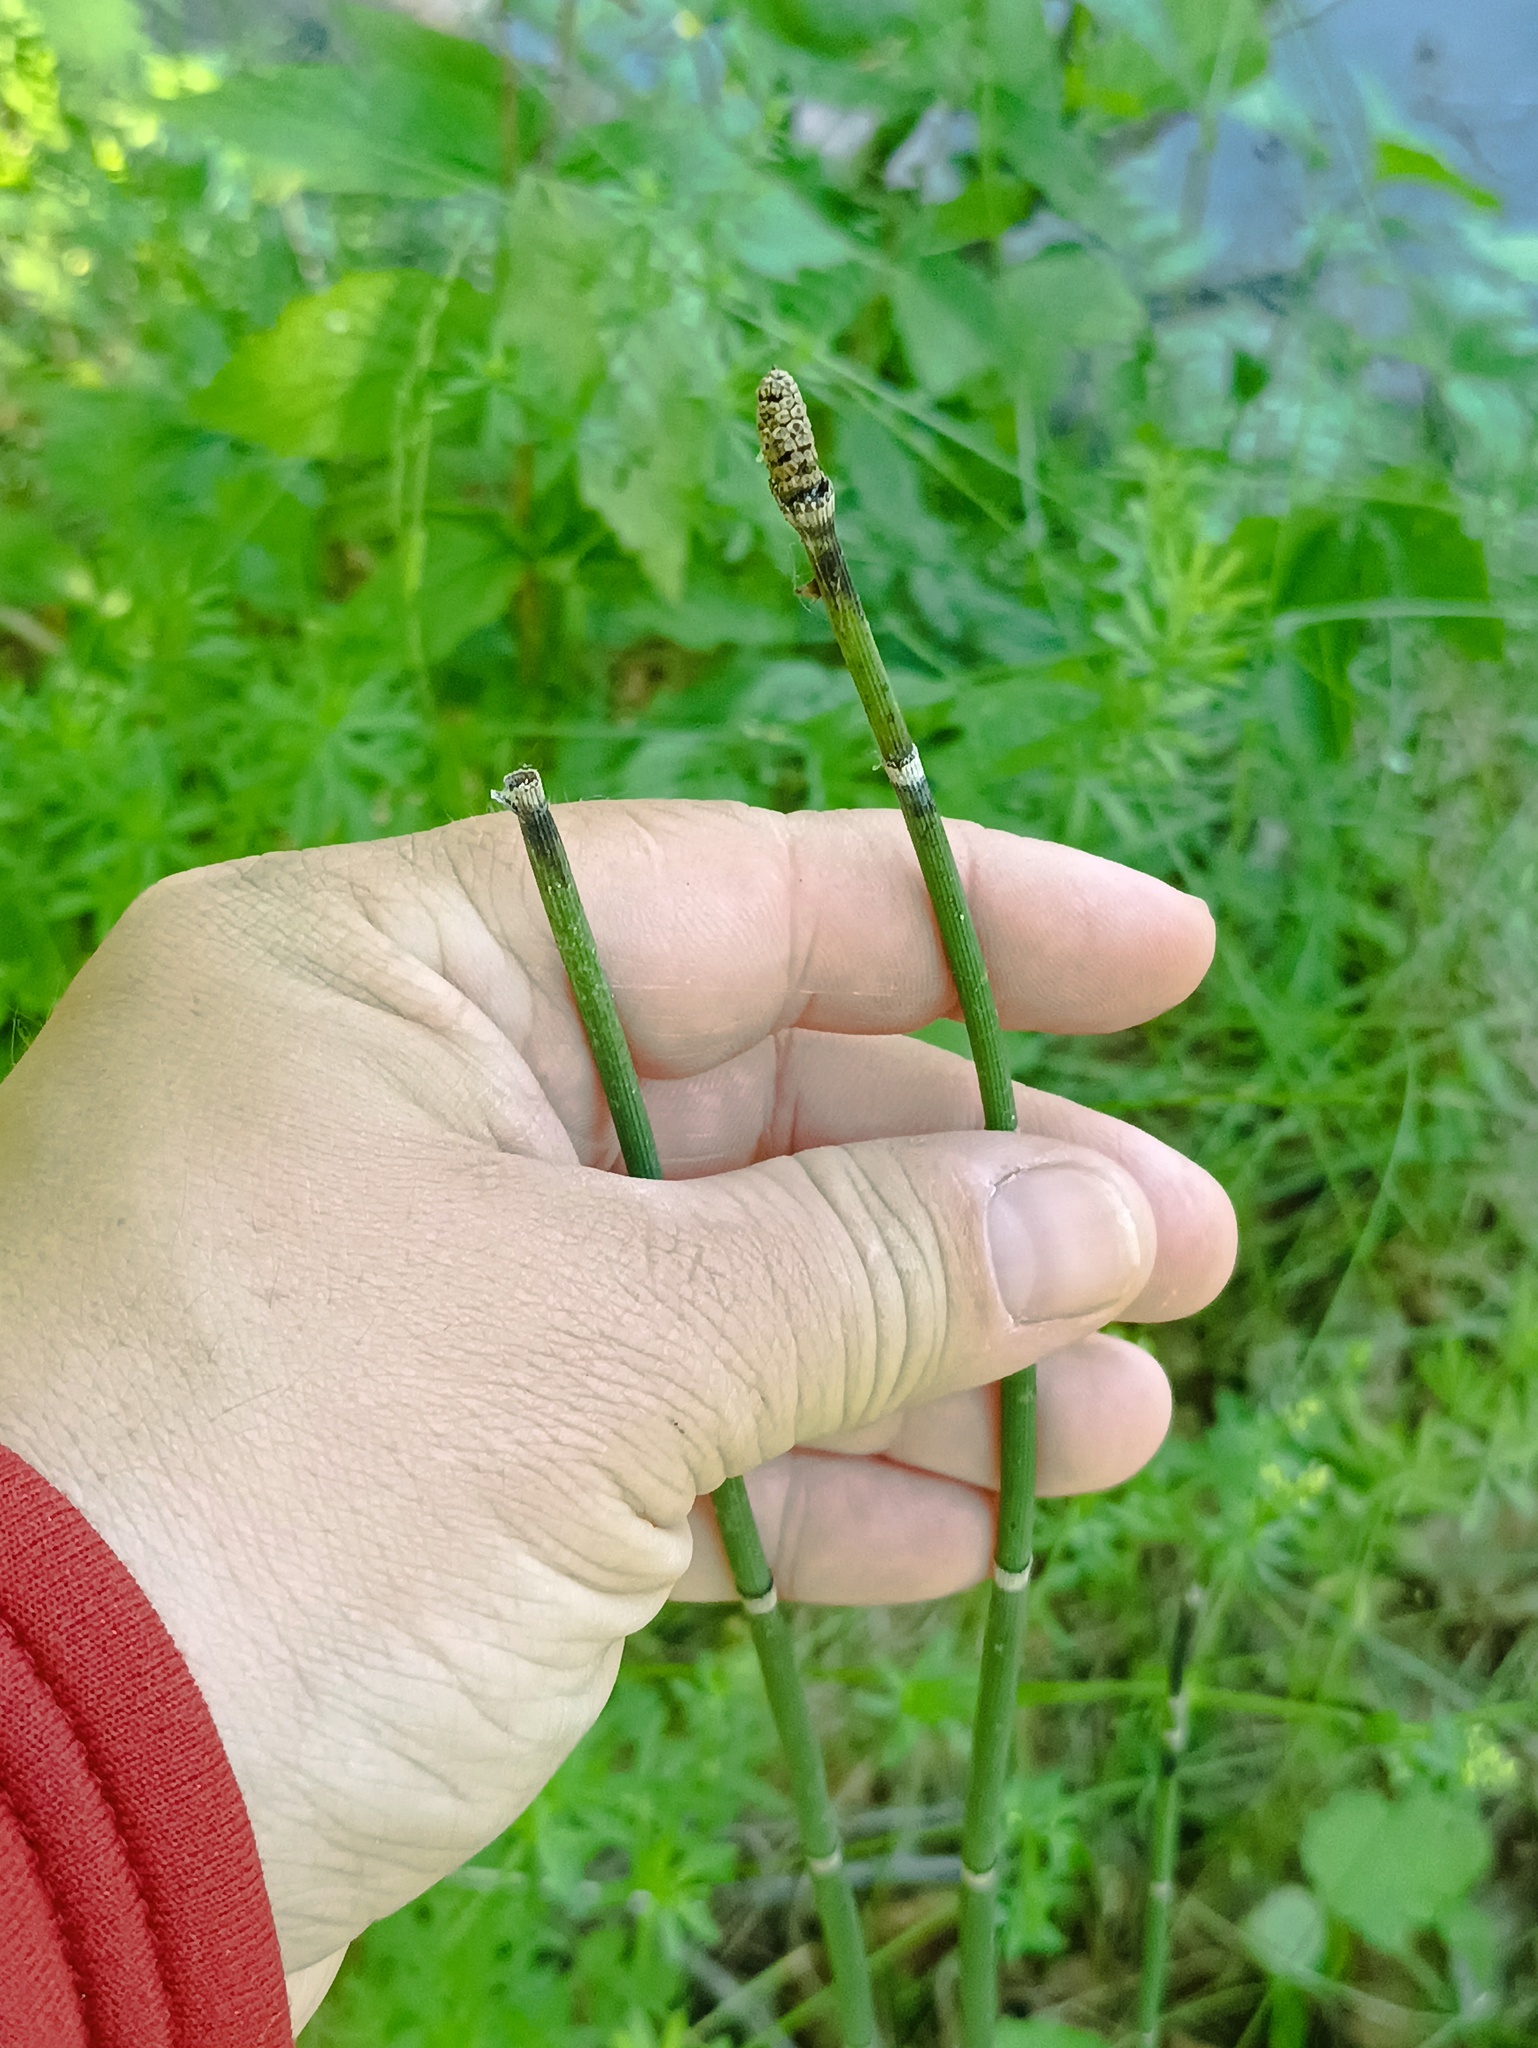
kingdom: Plantae
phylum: Tracheophyta
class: Polypodiopsida
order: Equisetales
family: Equisetaceae
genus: Equisetum
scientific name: Equisetum hyemale
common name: Rough horsetail
